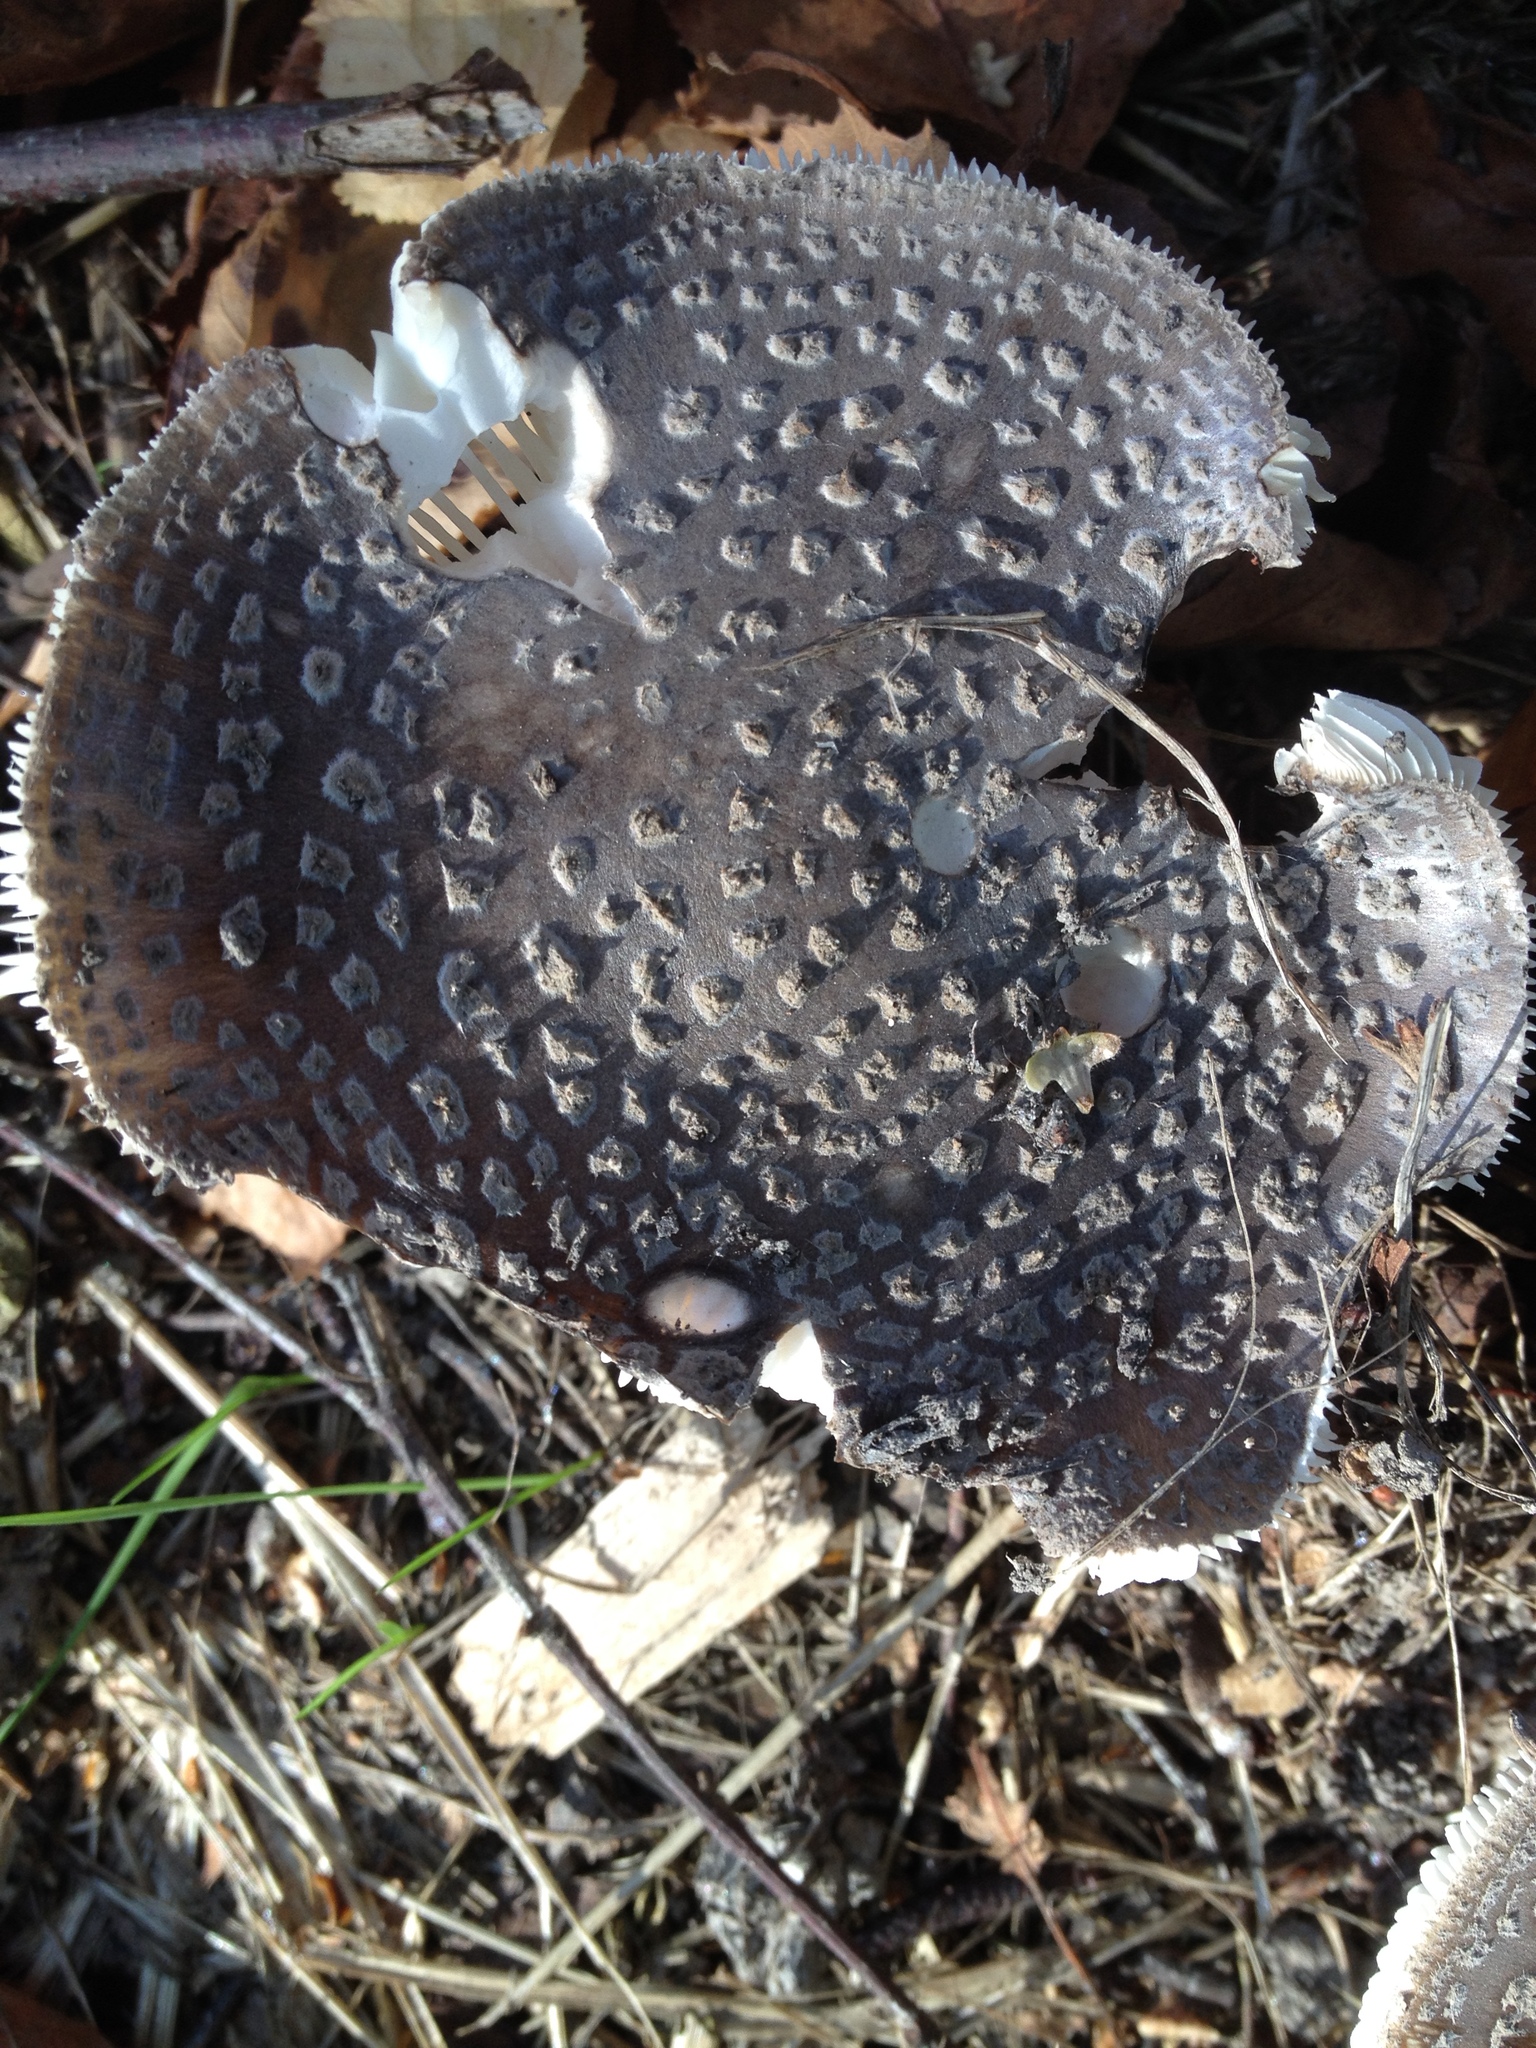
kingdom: Fungi
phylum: Basidiomycota
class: Agaricomycetes
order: Agaricales
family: Amanitaceae
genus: Amanita
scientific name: Amanita excelsa
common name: European false blusher
